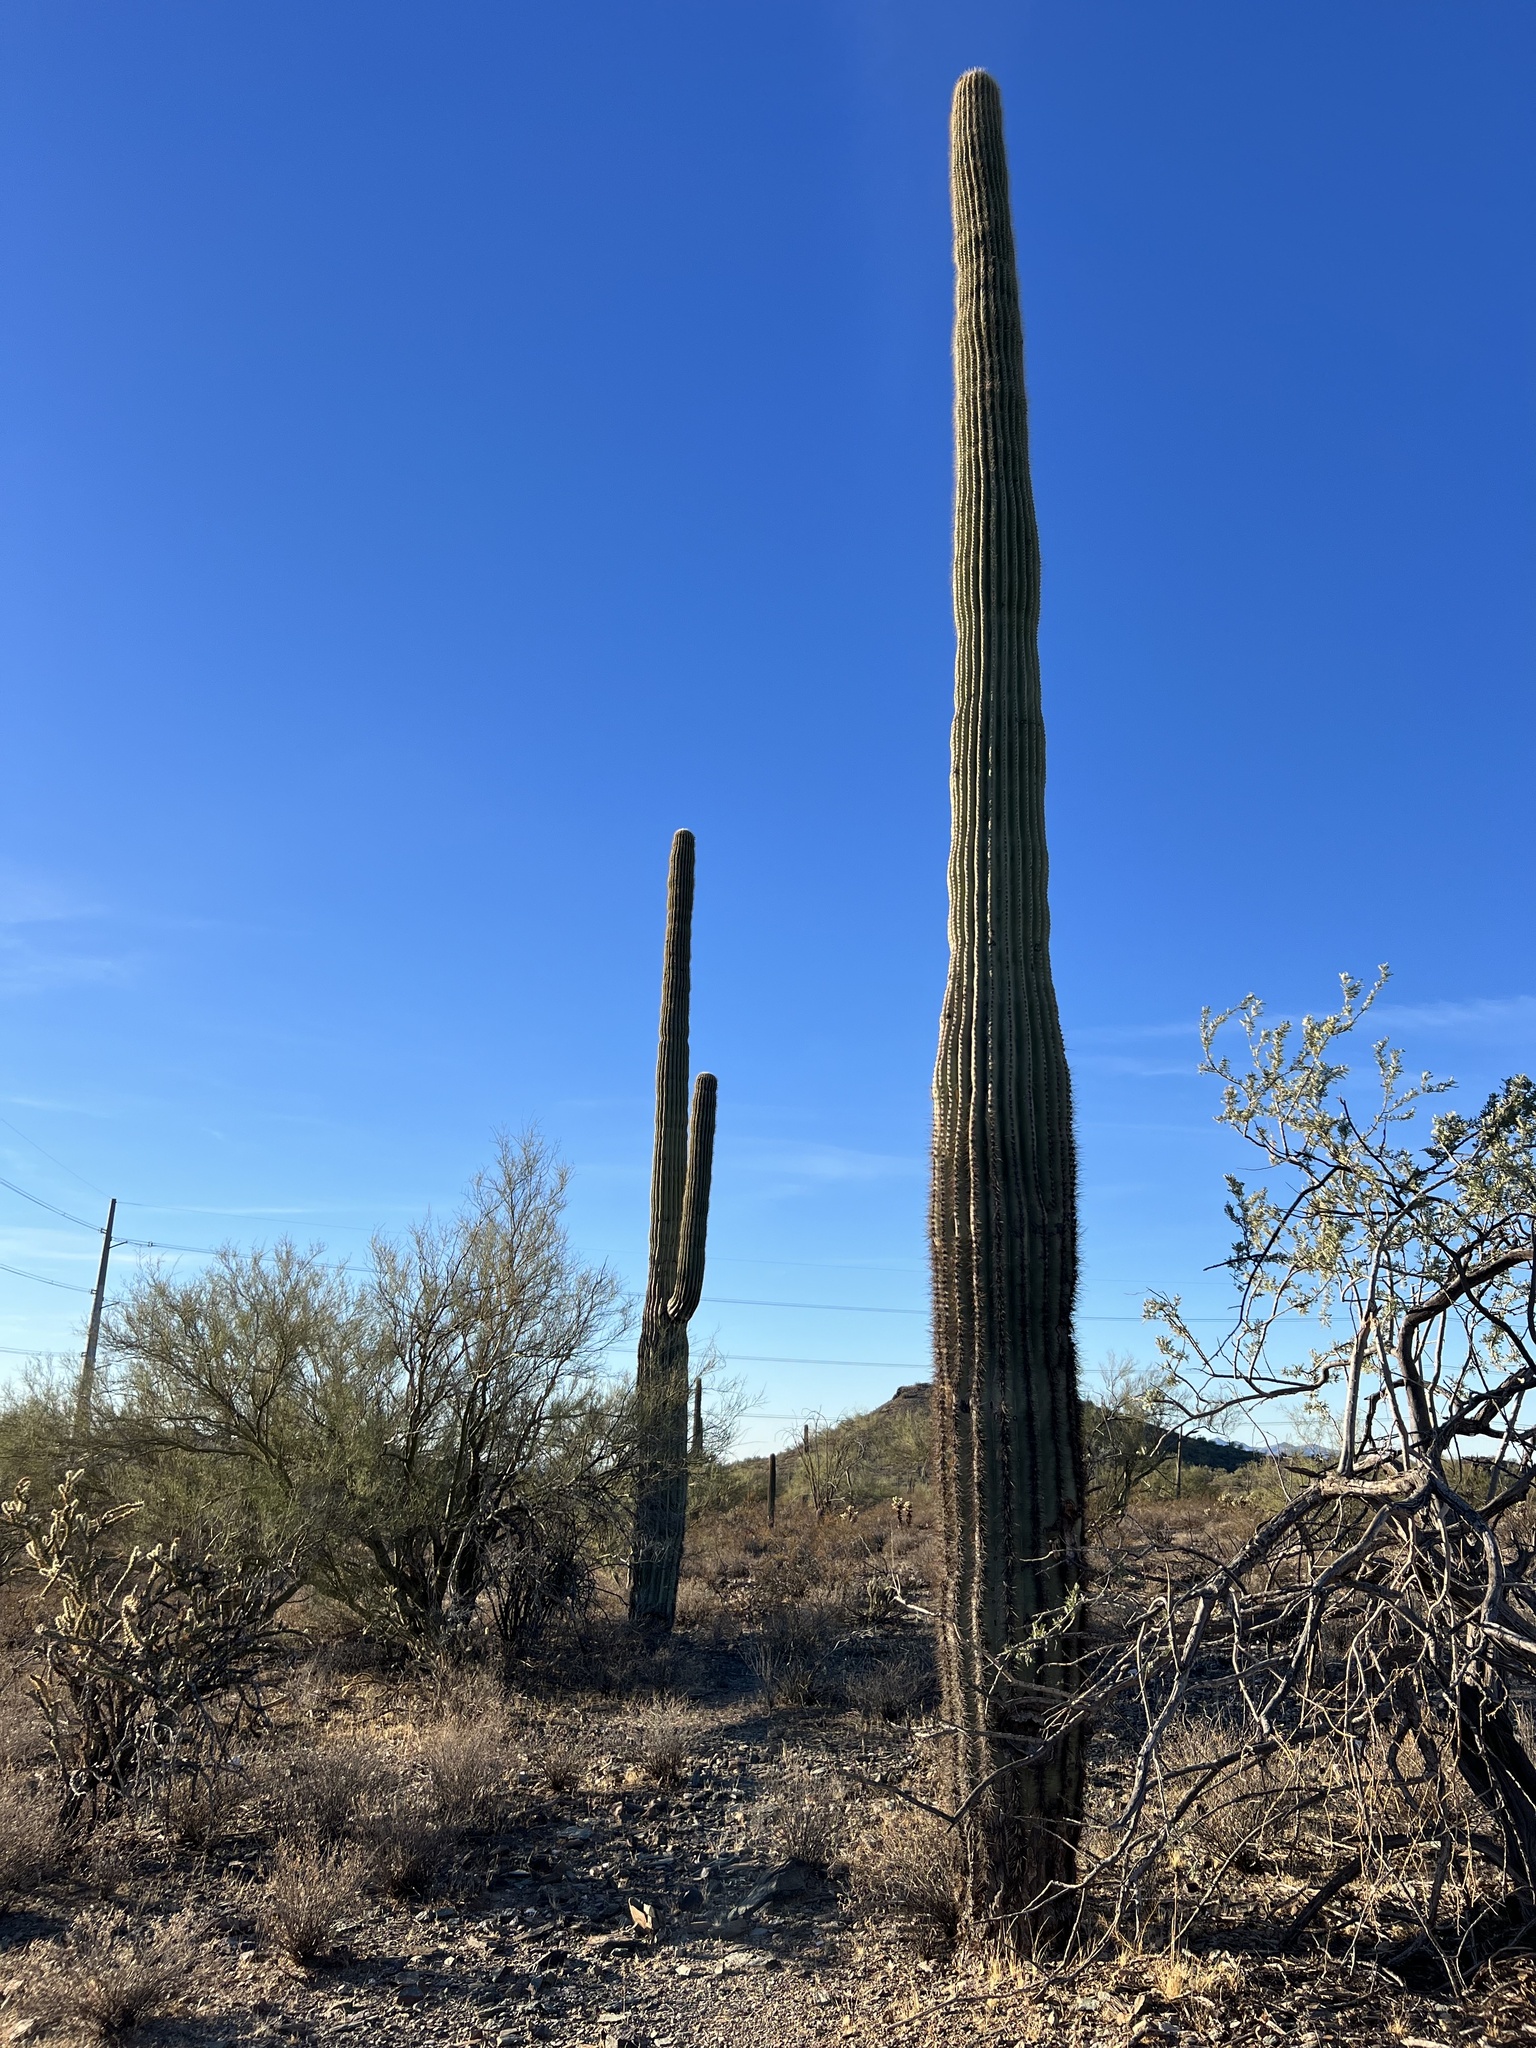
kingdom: Plantae
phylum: Tracheophyta
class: Magnoliopsida
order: Caryophyllales
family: Cactaceae
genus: Carnegiea
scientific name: Carnegiea gigantea
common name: Saguaro
